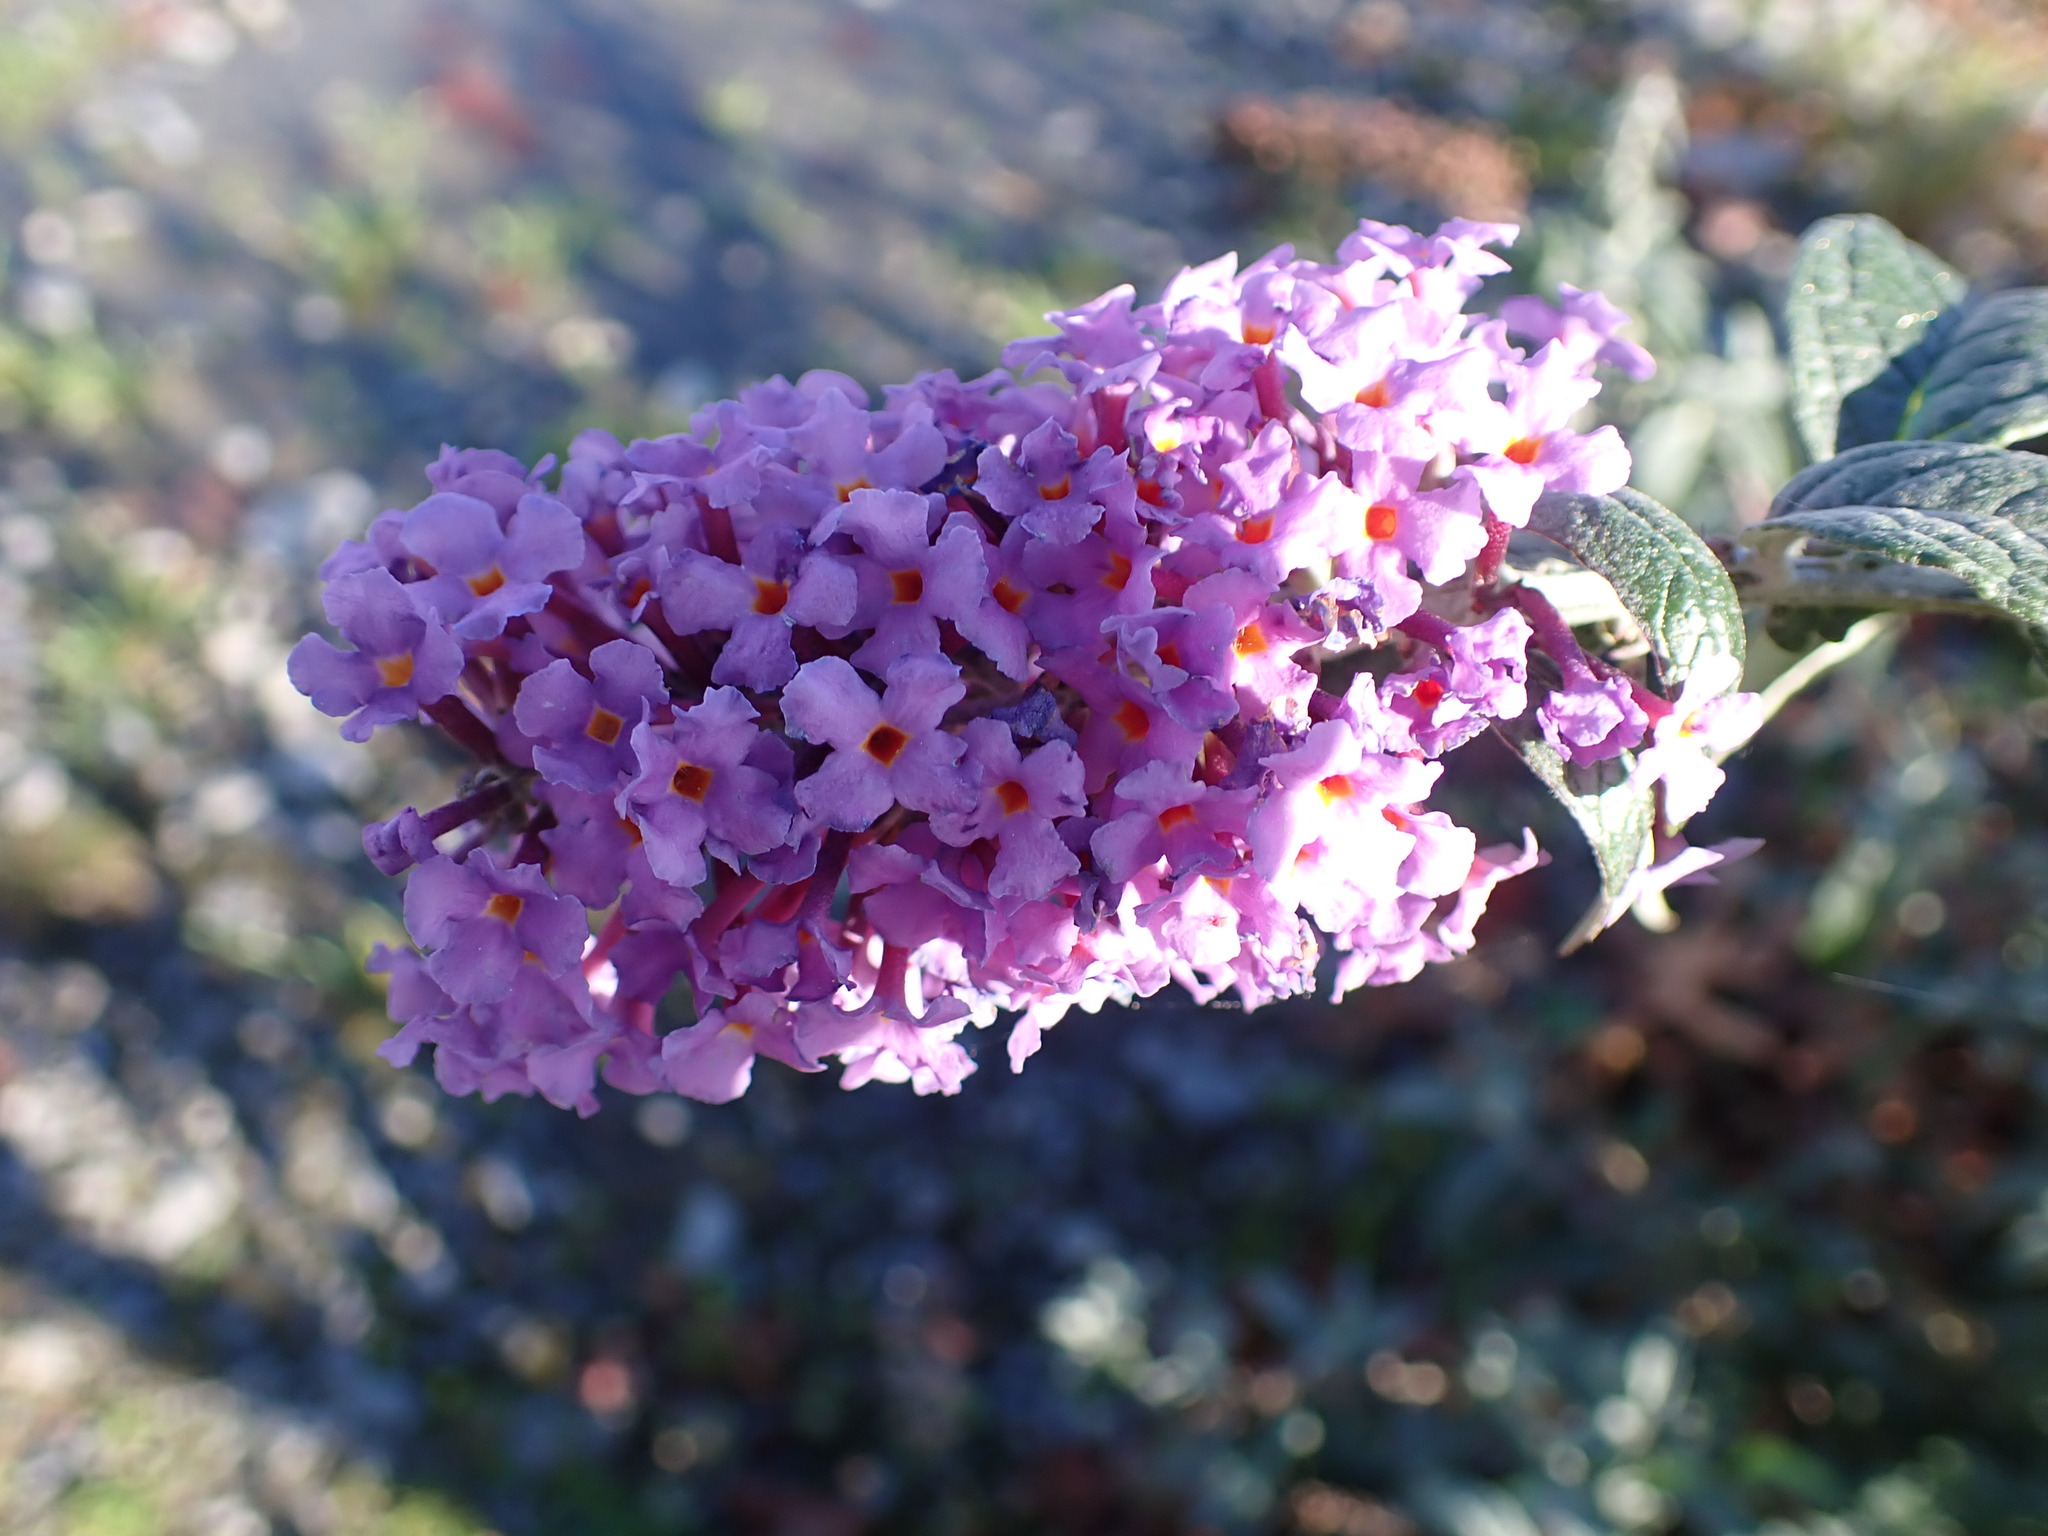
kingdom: Plantae
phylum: Tracheophyta
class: Magnoliopsida
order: Lamiales
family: Scrophulariaceae
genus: Buddleja
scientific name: Buddleja davidii
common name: Butterfly-bush
